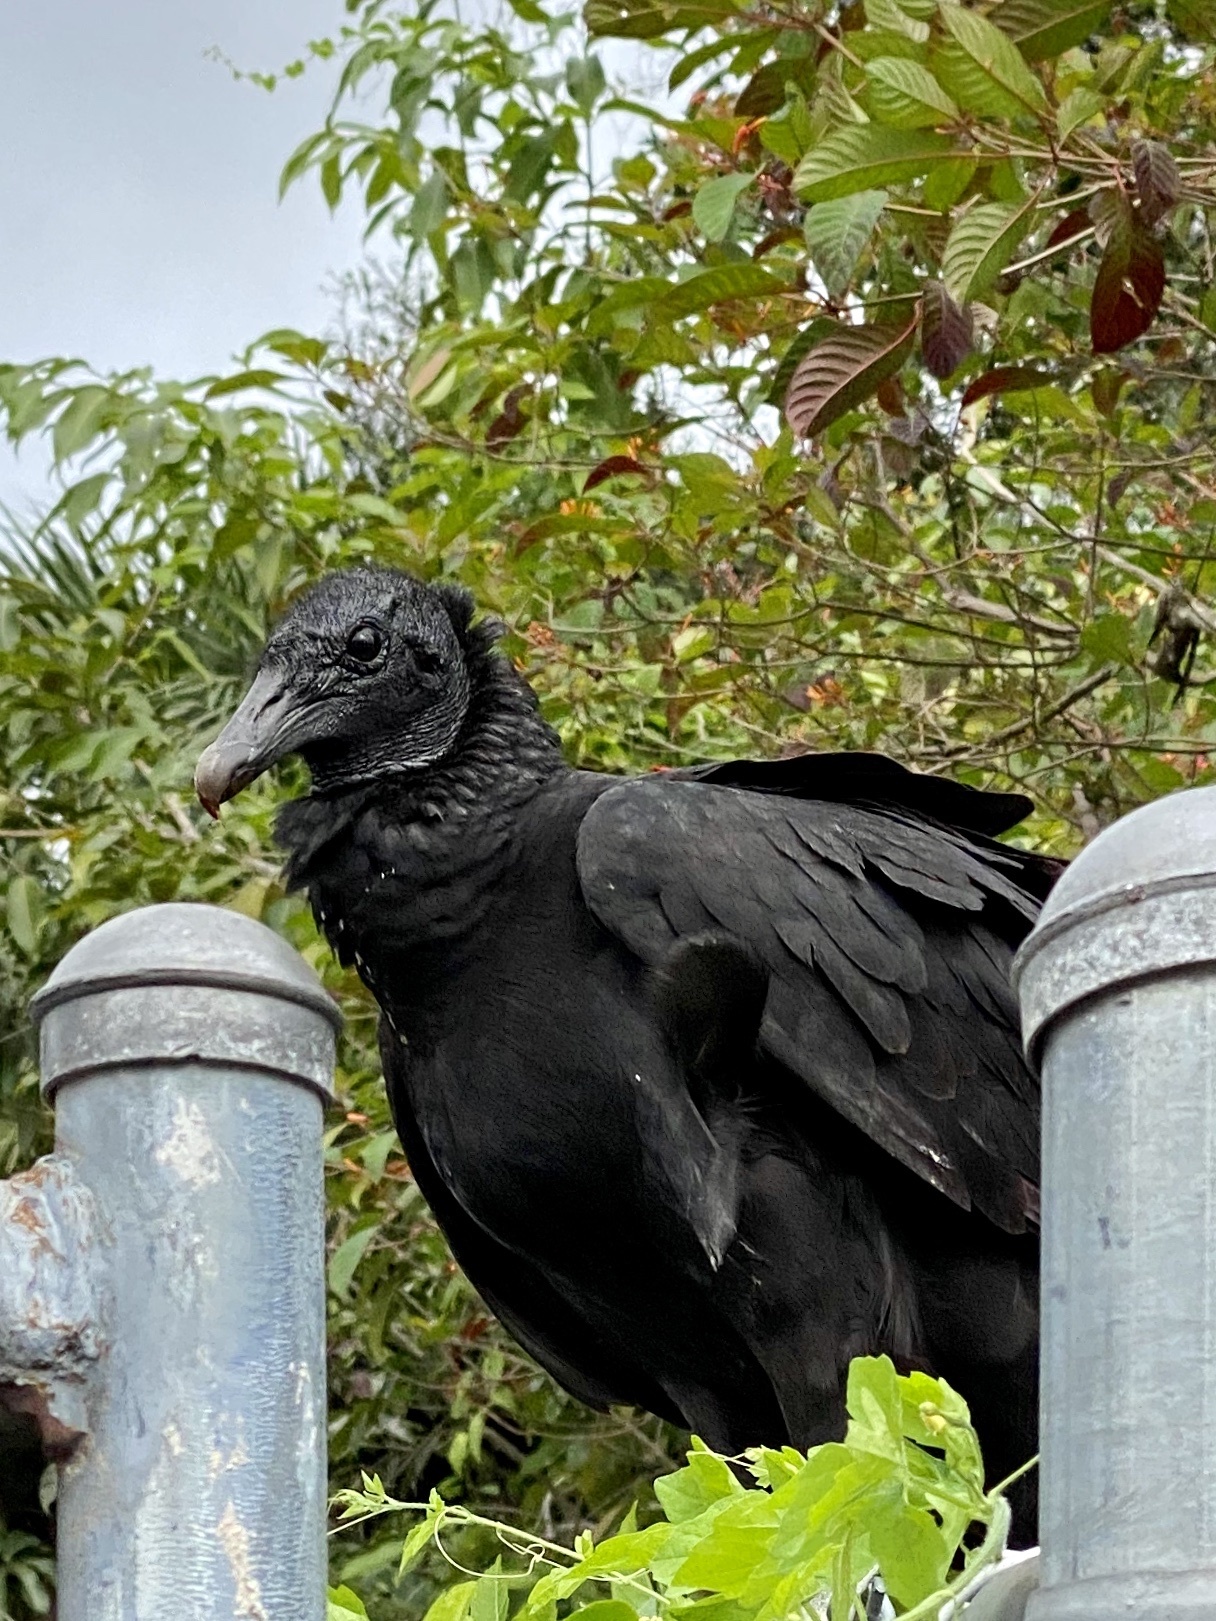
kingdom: Animalia
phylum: Chordata
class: Aves
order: Accipitriformes
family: Cathartidae
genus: Coragyps
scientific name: Coragyps atratus
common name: Black vulture
